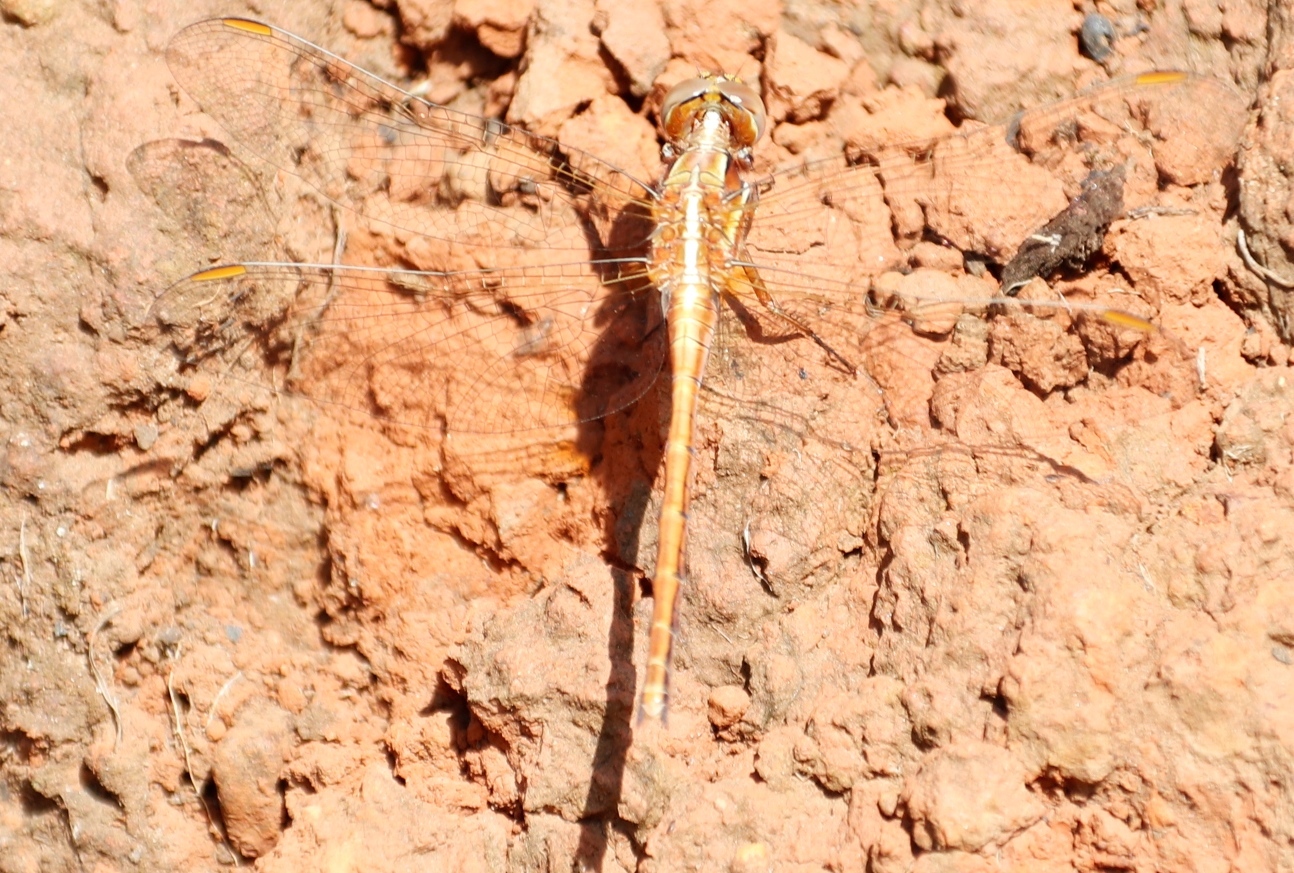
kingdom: Animalia
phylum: Arthropoda
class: Insecta
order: Odonata
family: Libellulidae
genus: Orthetrum
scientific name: Orthetrum caffrum
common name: Two-striped skimmer
